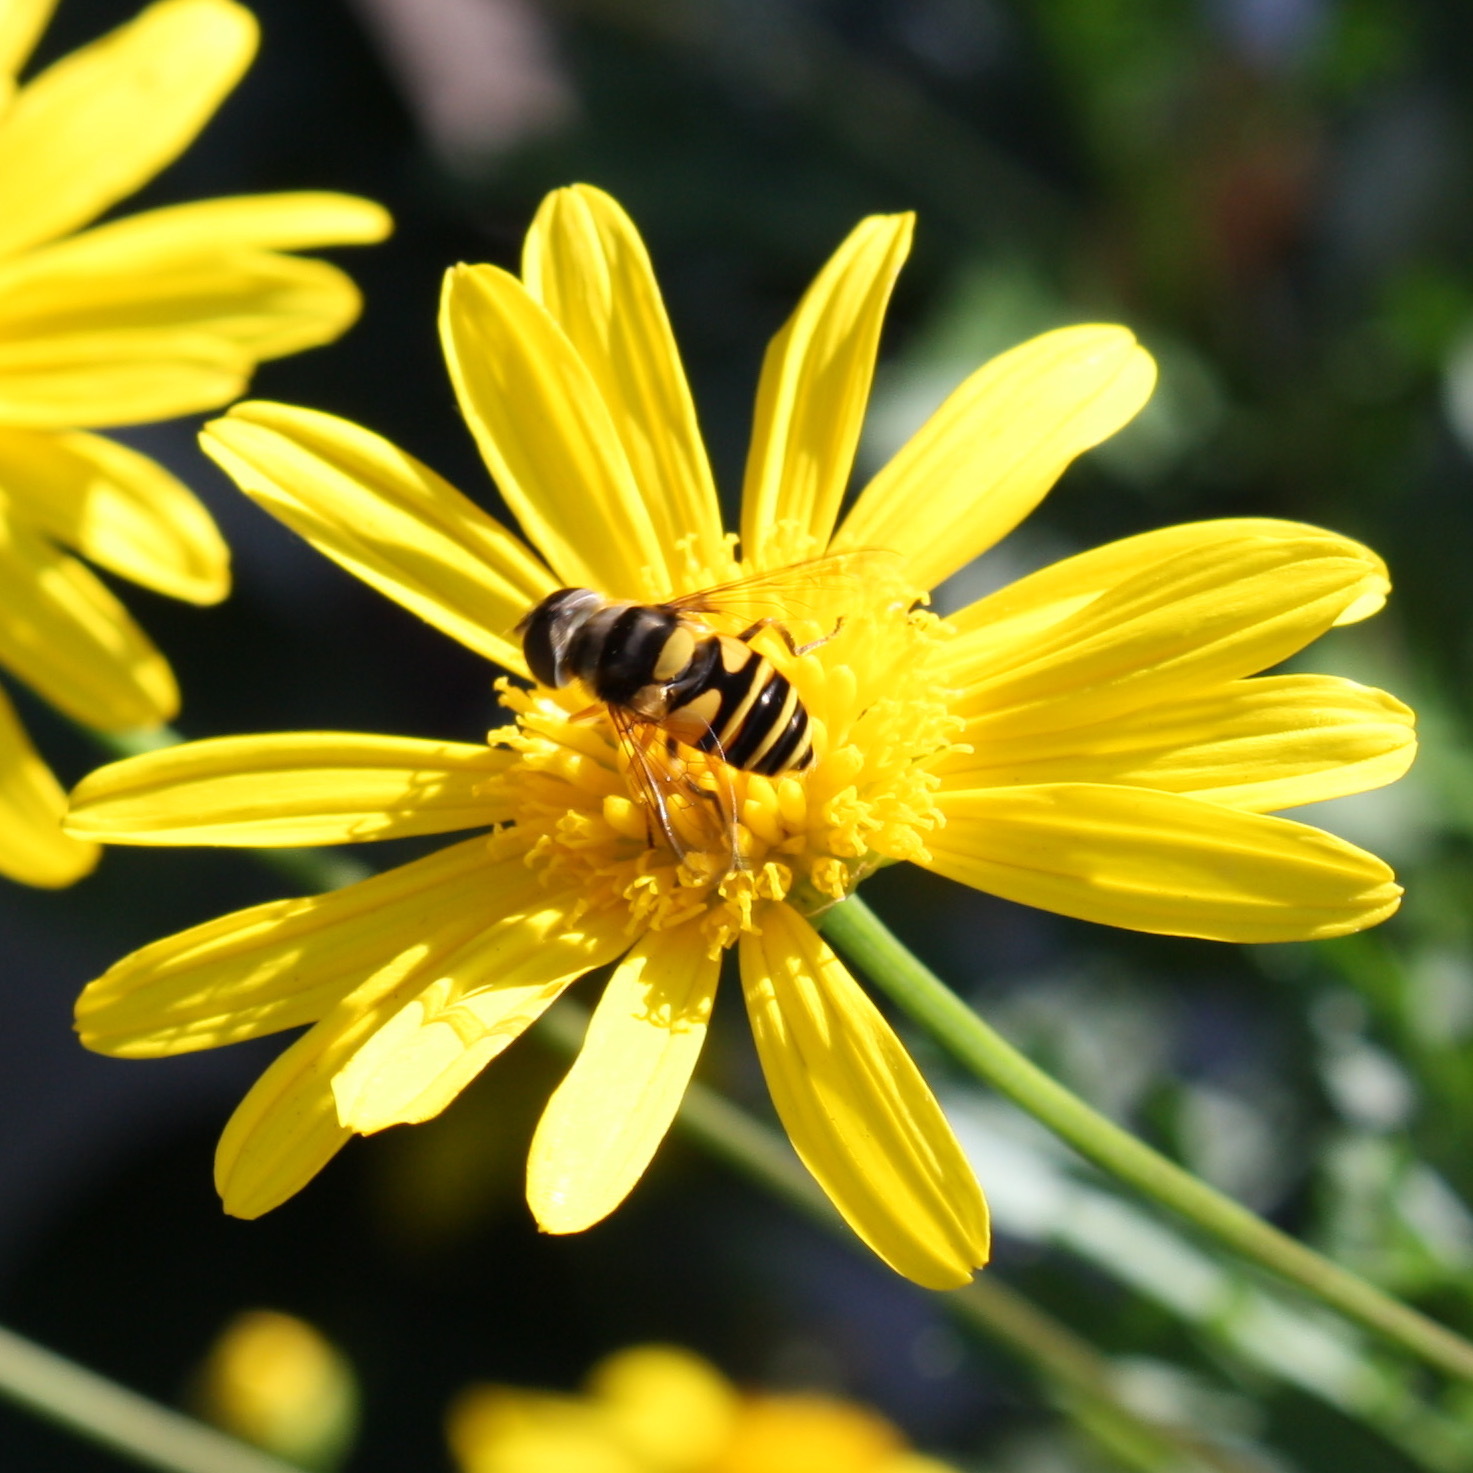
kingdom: Animalia
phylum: Arthropoda
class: Insecta
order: Diptera
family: Syrphidae
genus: Eristalis
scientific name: Eristalis transversa
